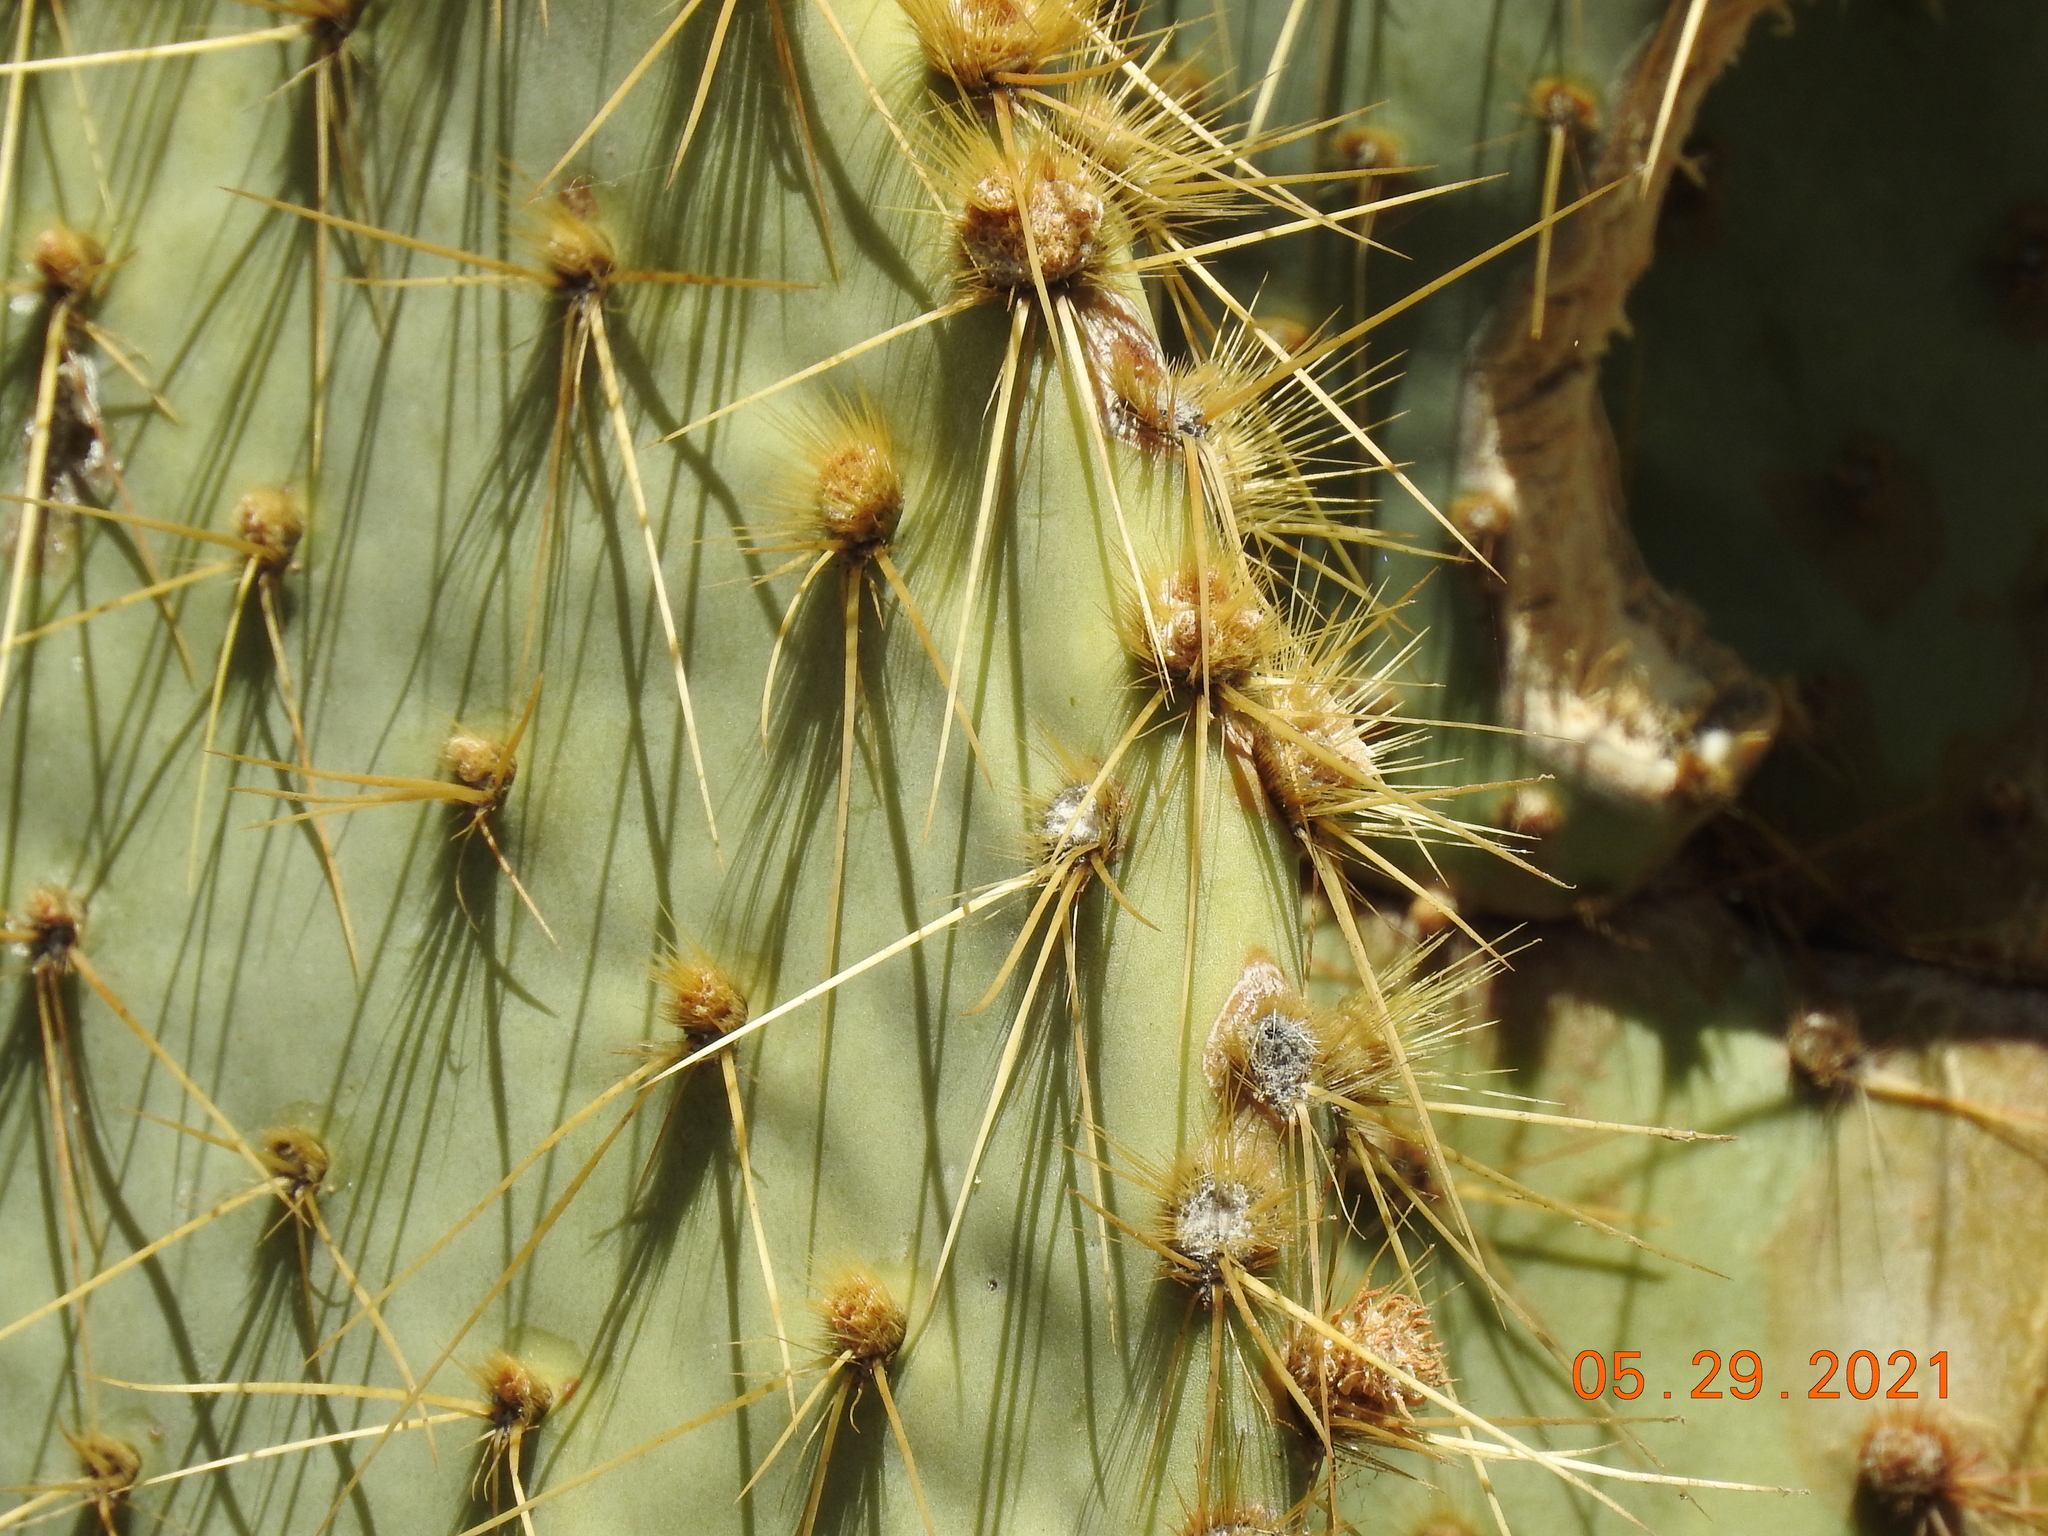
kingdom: Plantae
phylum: Tracheophyta
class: Magnoliopsida
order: Caryophyllales
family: Cactaceae
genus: Opuntia
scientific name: Opuntia chlorotica
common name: Dollar-joint prickly-pear
